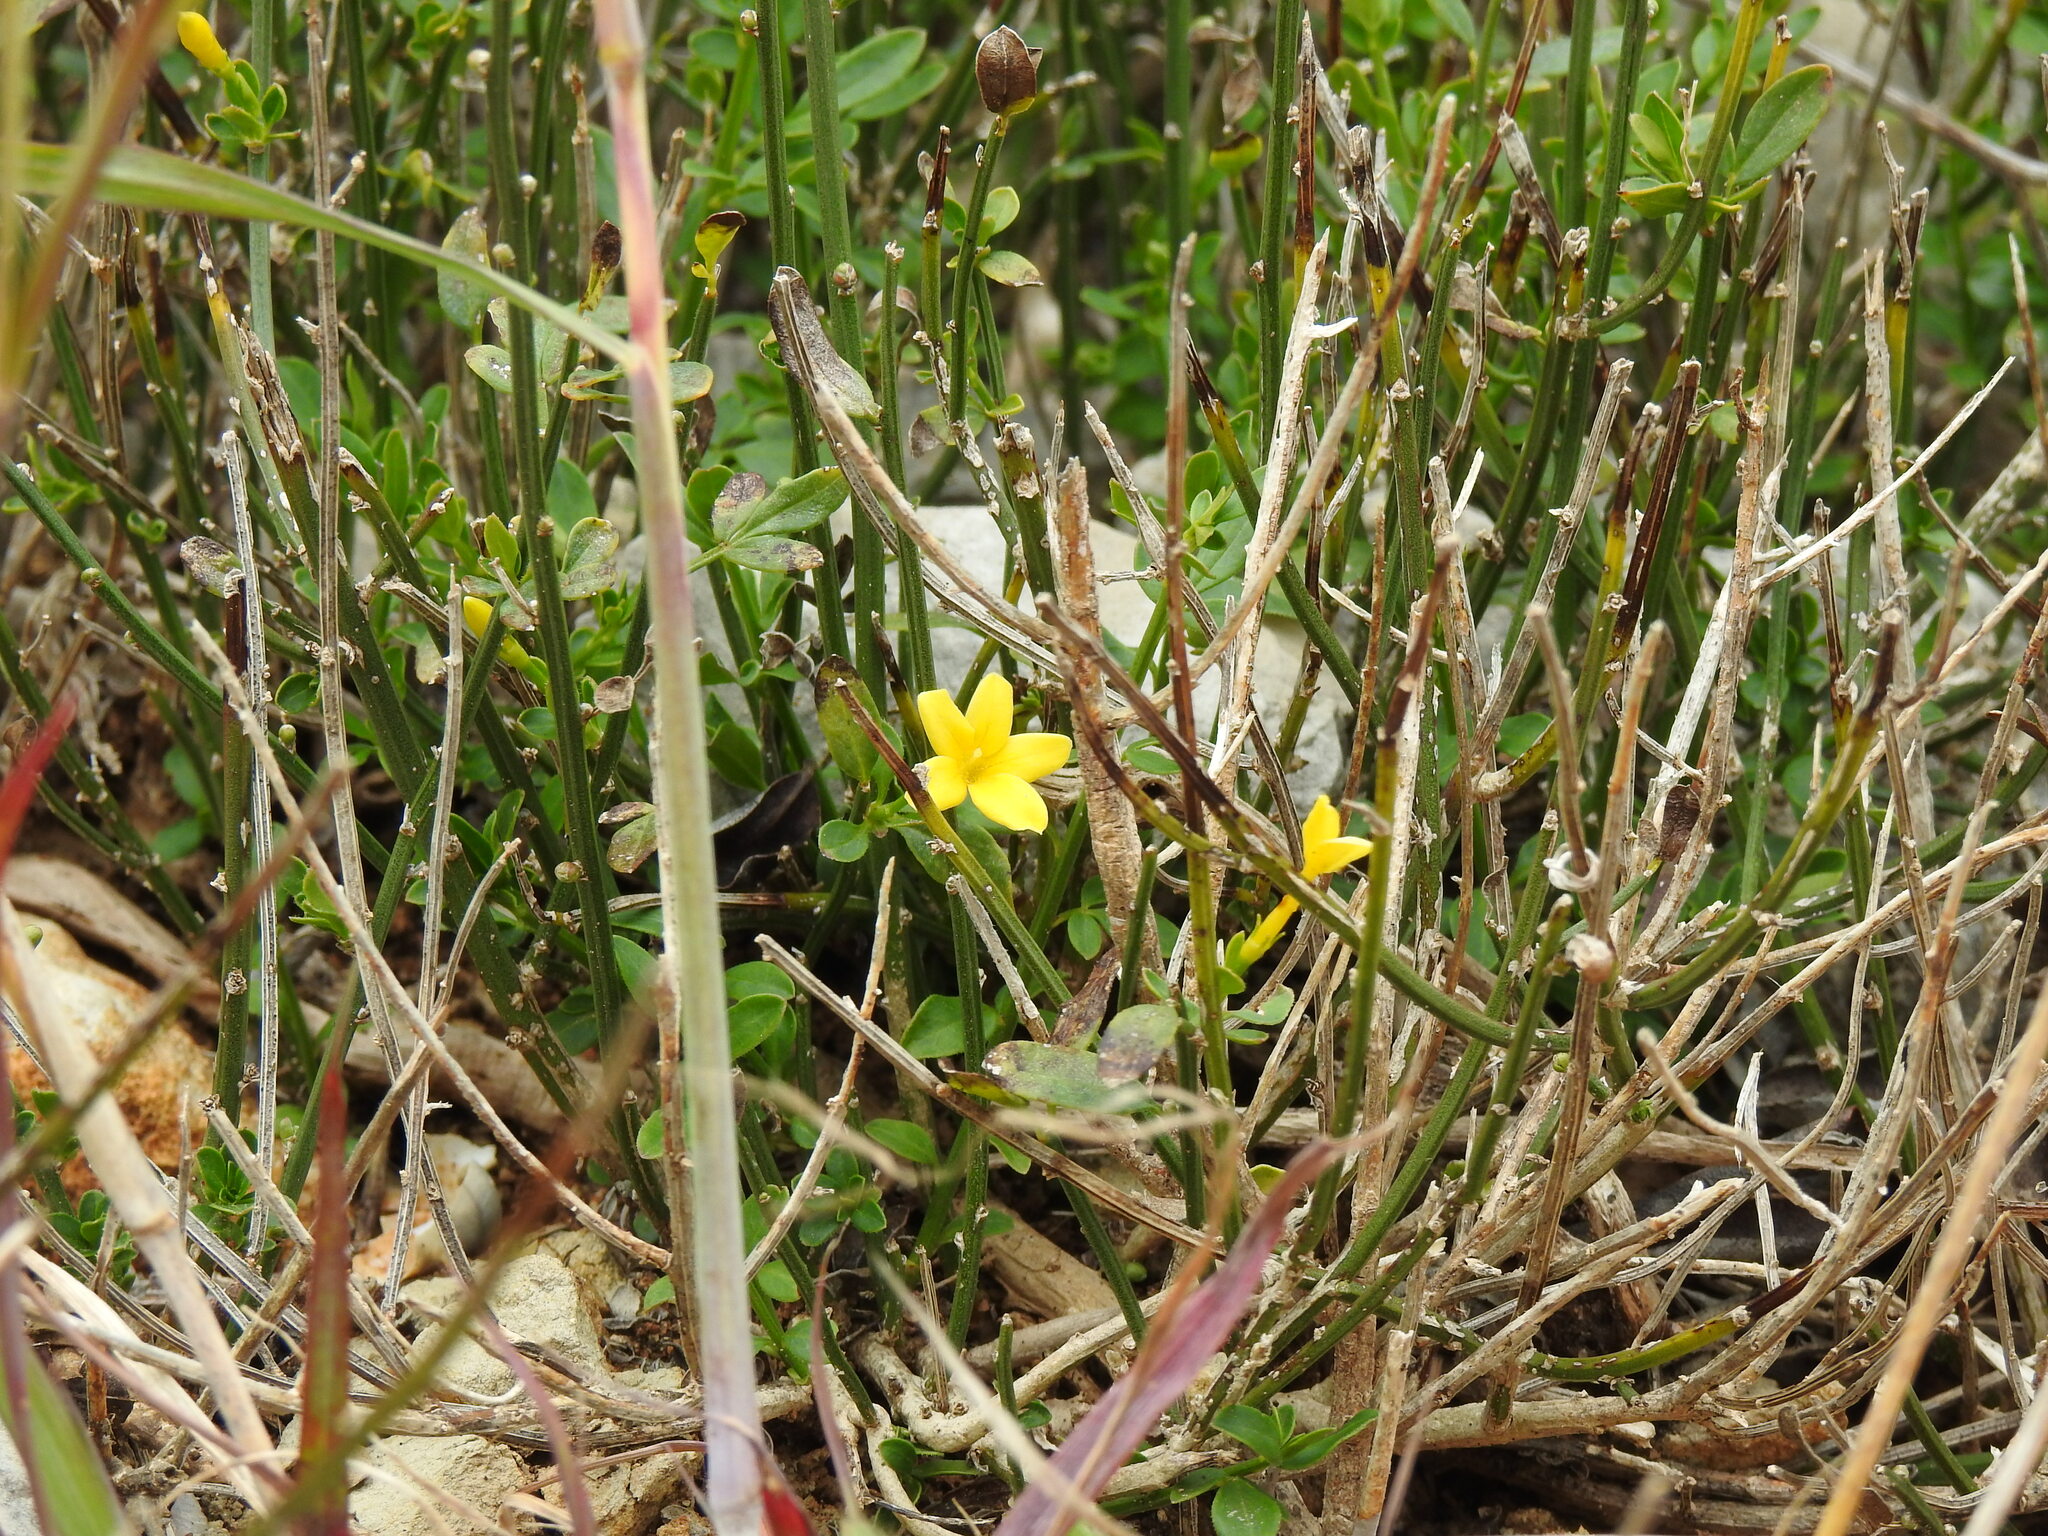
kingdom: Plantae
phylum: Tracheophyta
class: Magnoliopsida
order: Lamiales
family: Oleaceae
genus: Chrysojasminum
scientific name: Chrysojasminum fruticans
